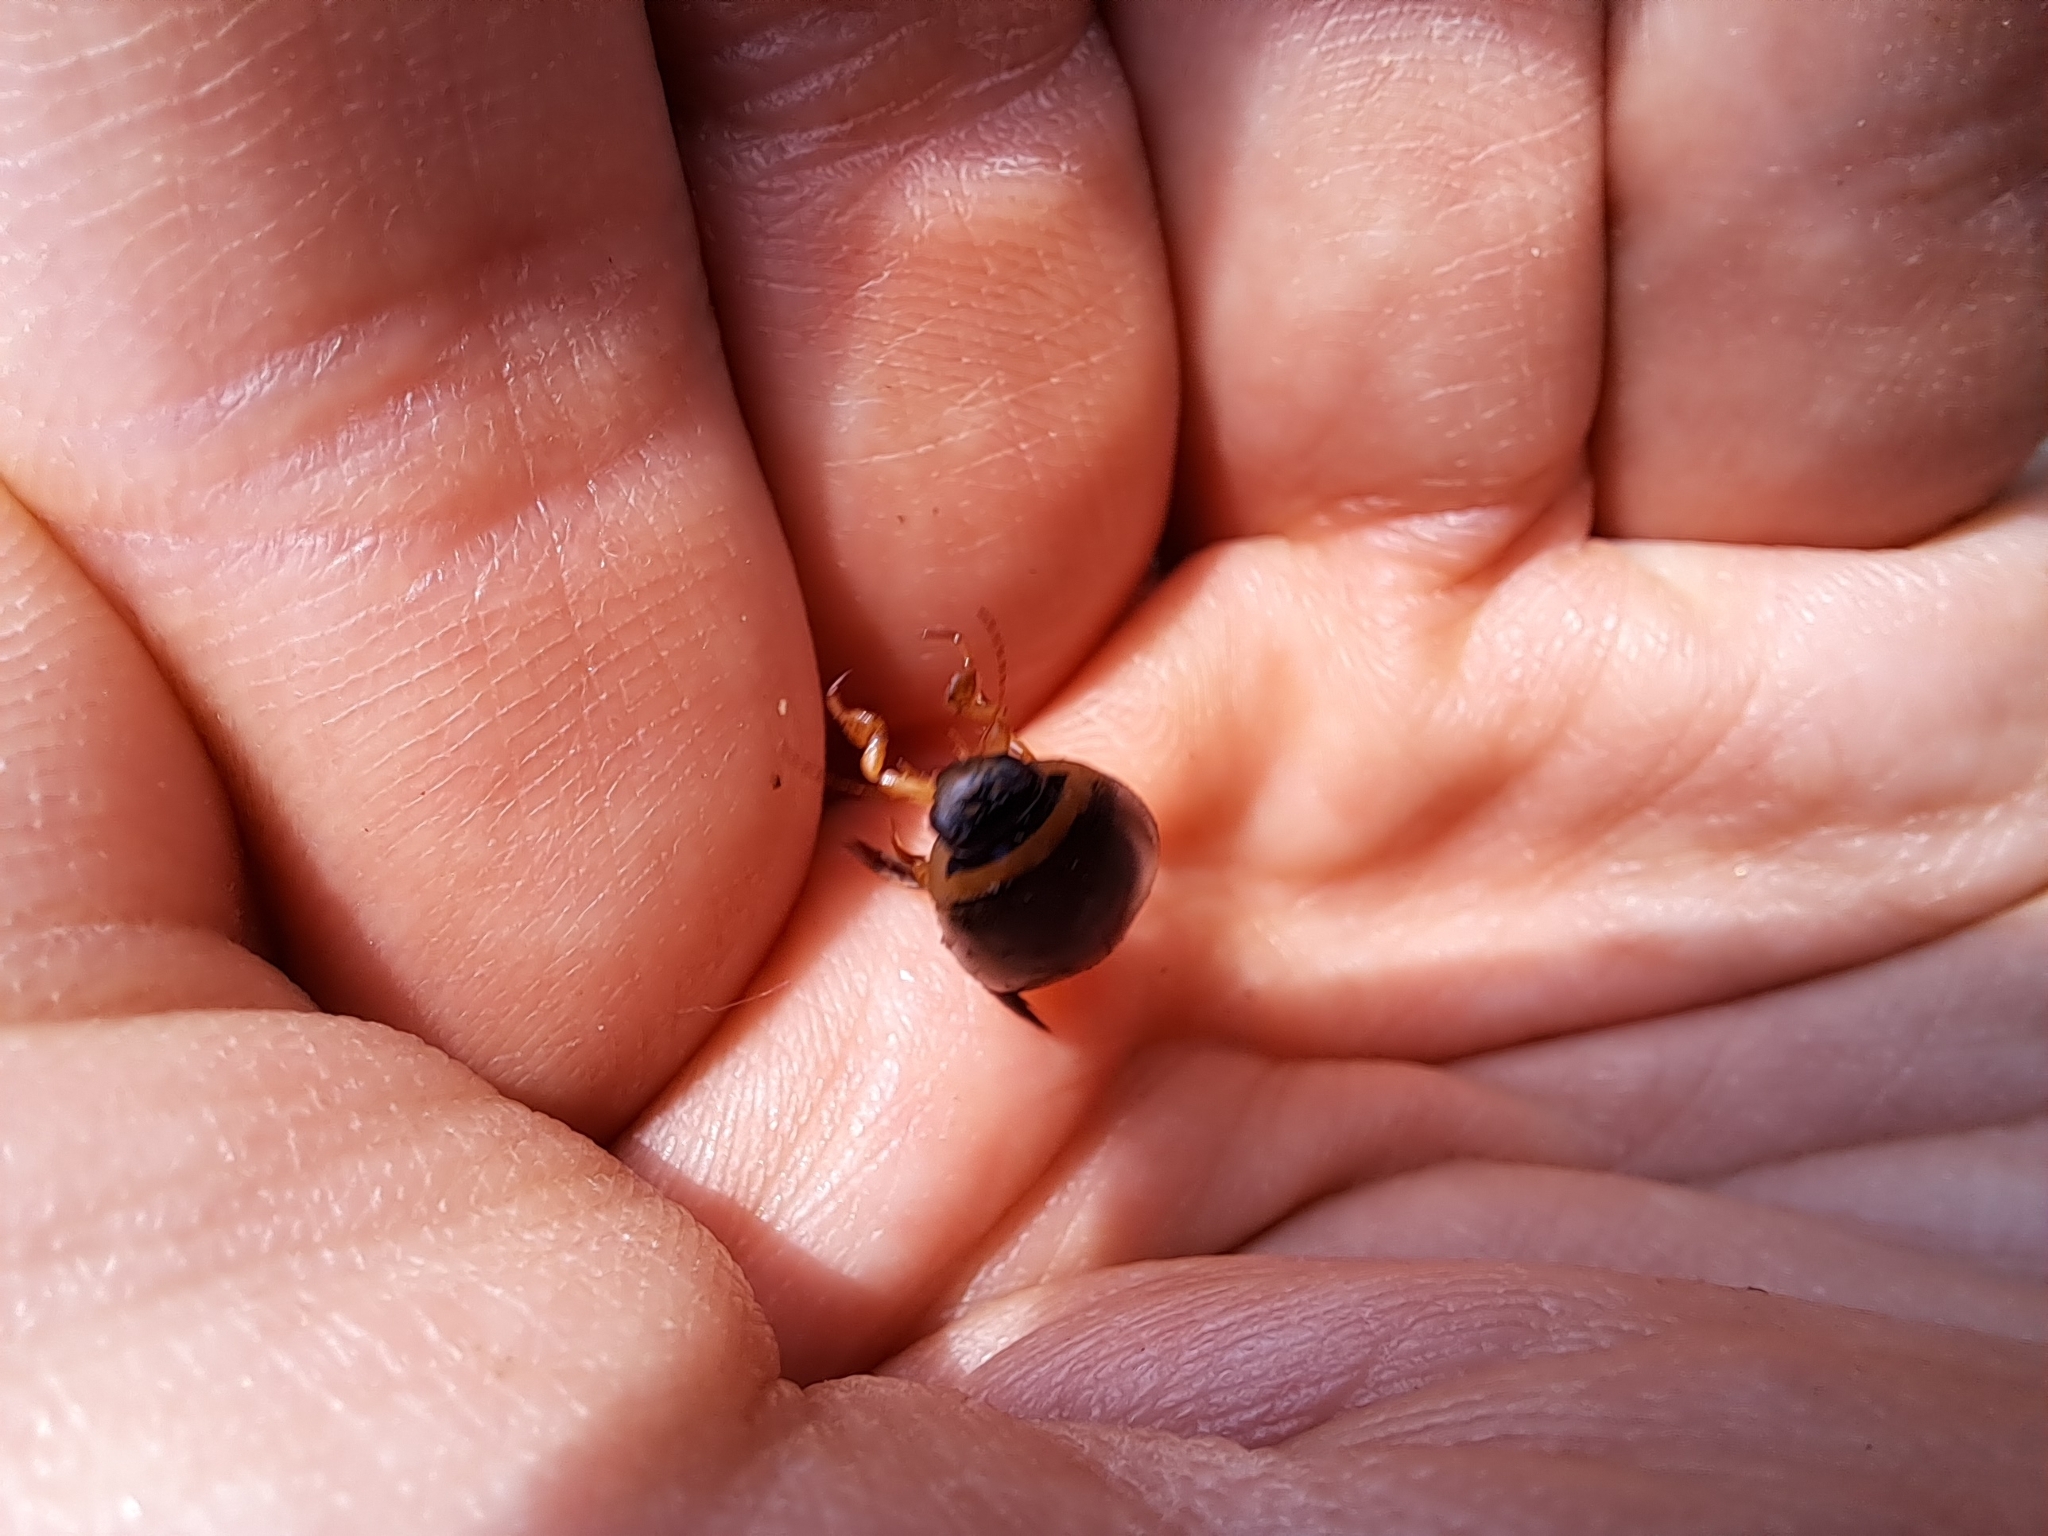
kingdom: Animalia
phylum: Arthropoda
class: Insecta
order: Coleoptera
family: Dytiscidae
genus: Graphoderus
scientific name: Graphoderus
